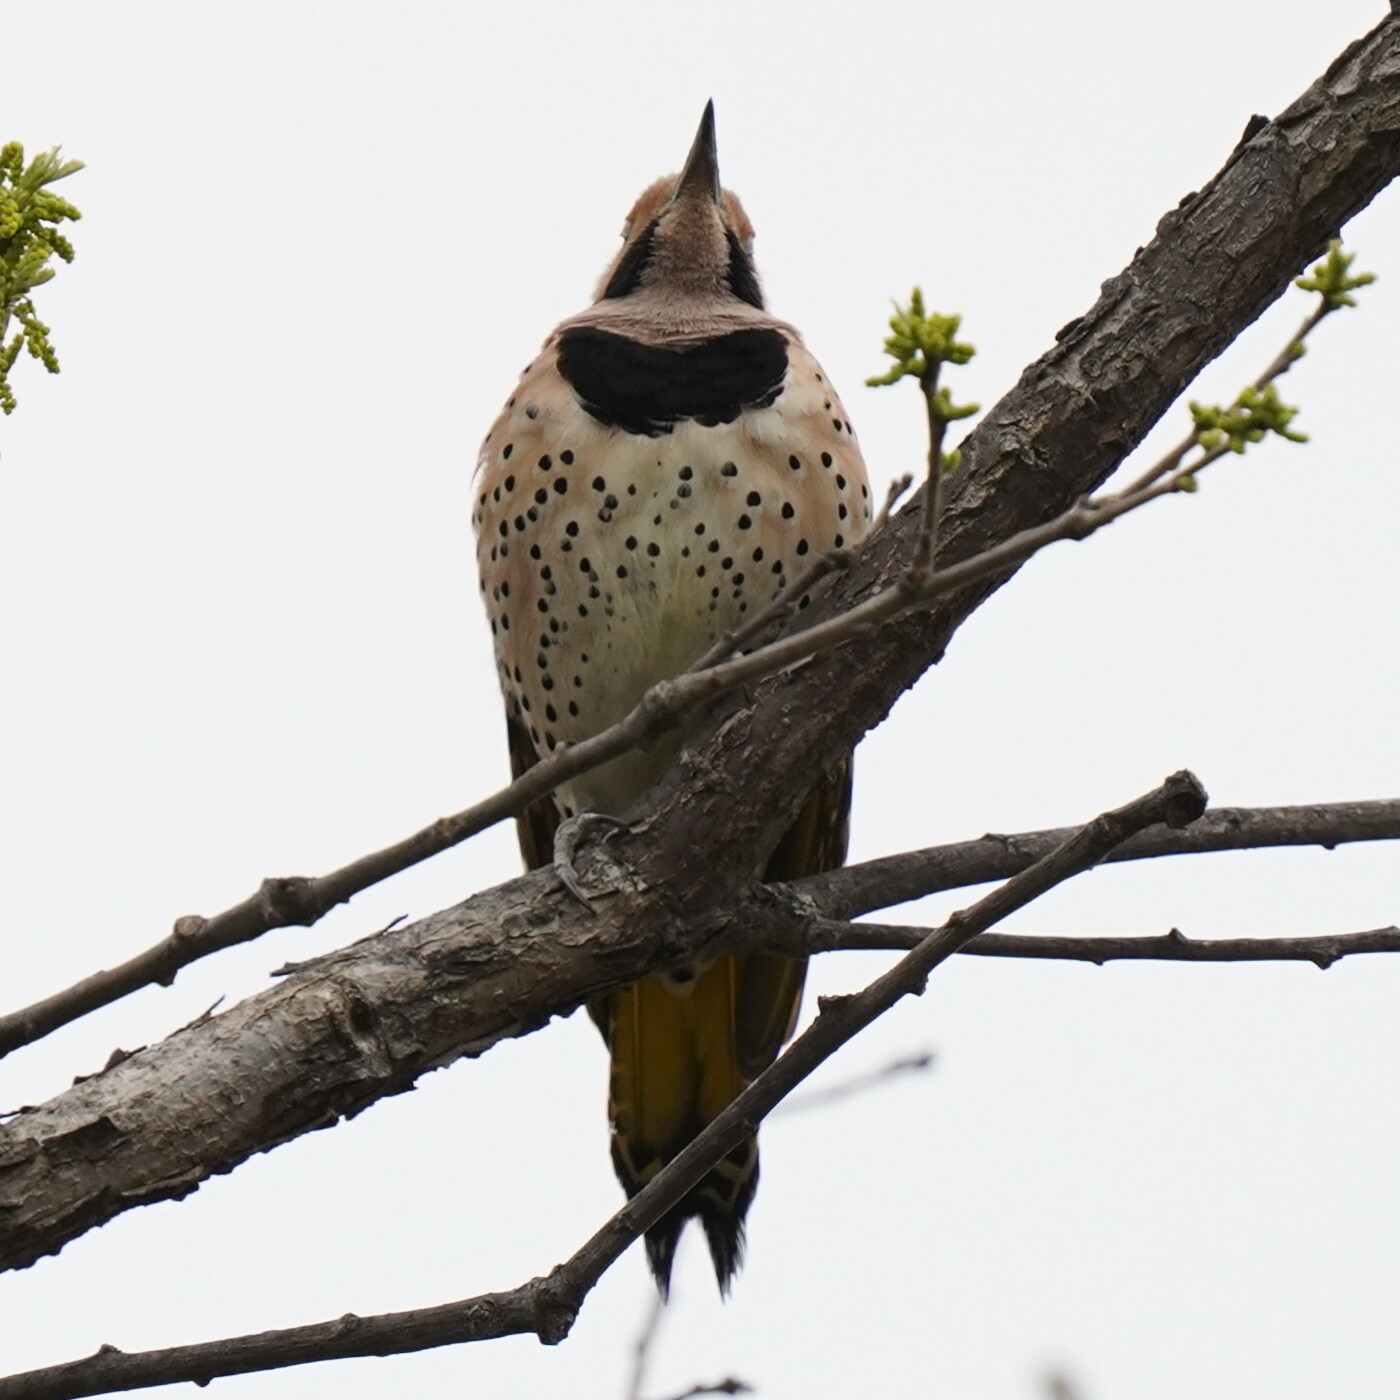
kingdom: Animalia
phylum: Chordata
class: Aves
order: Piciformes
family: Picidae
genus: Colaptes
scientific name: Colaptes auratus
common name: Northern flicker
